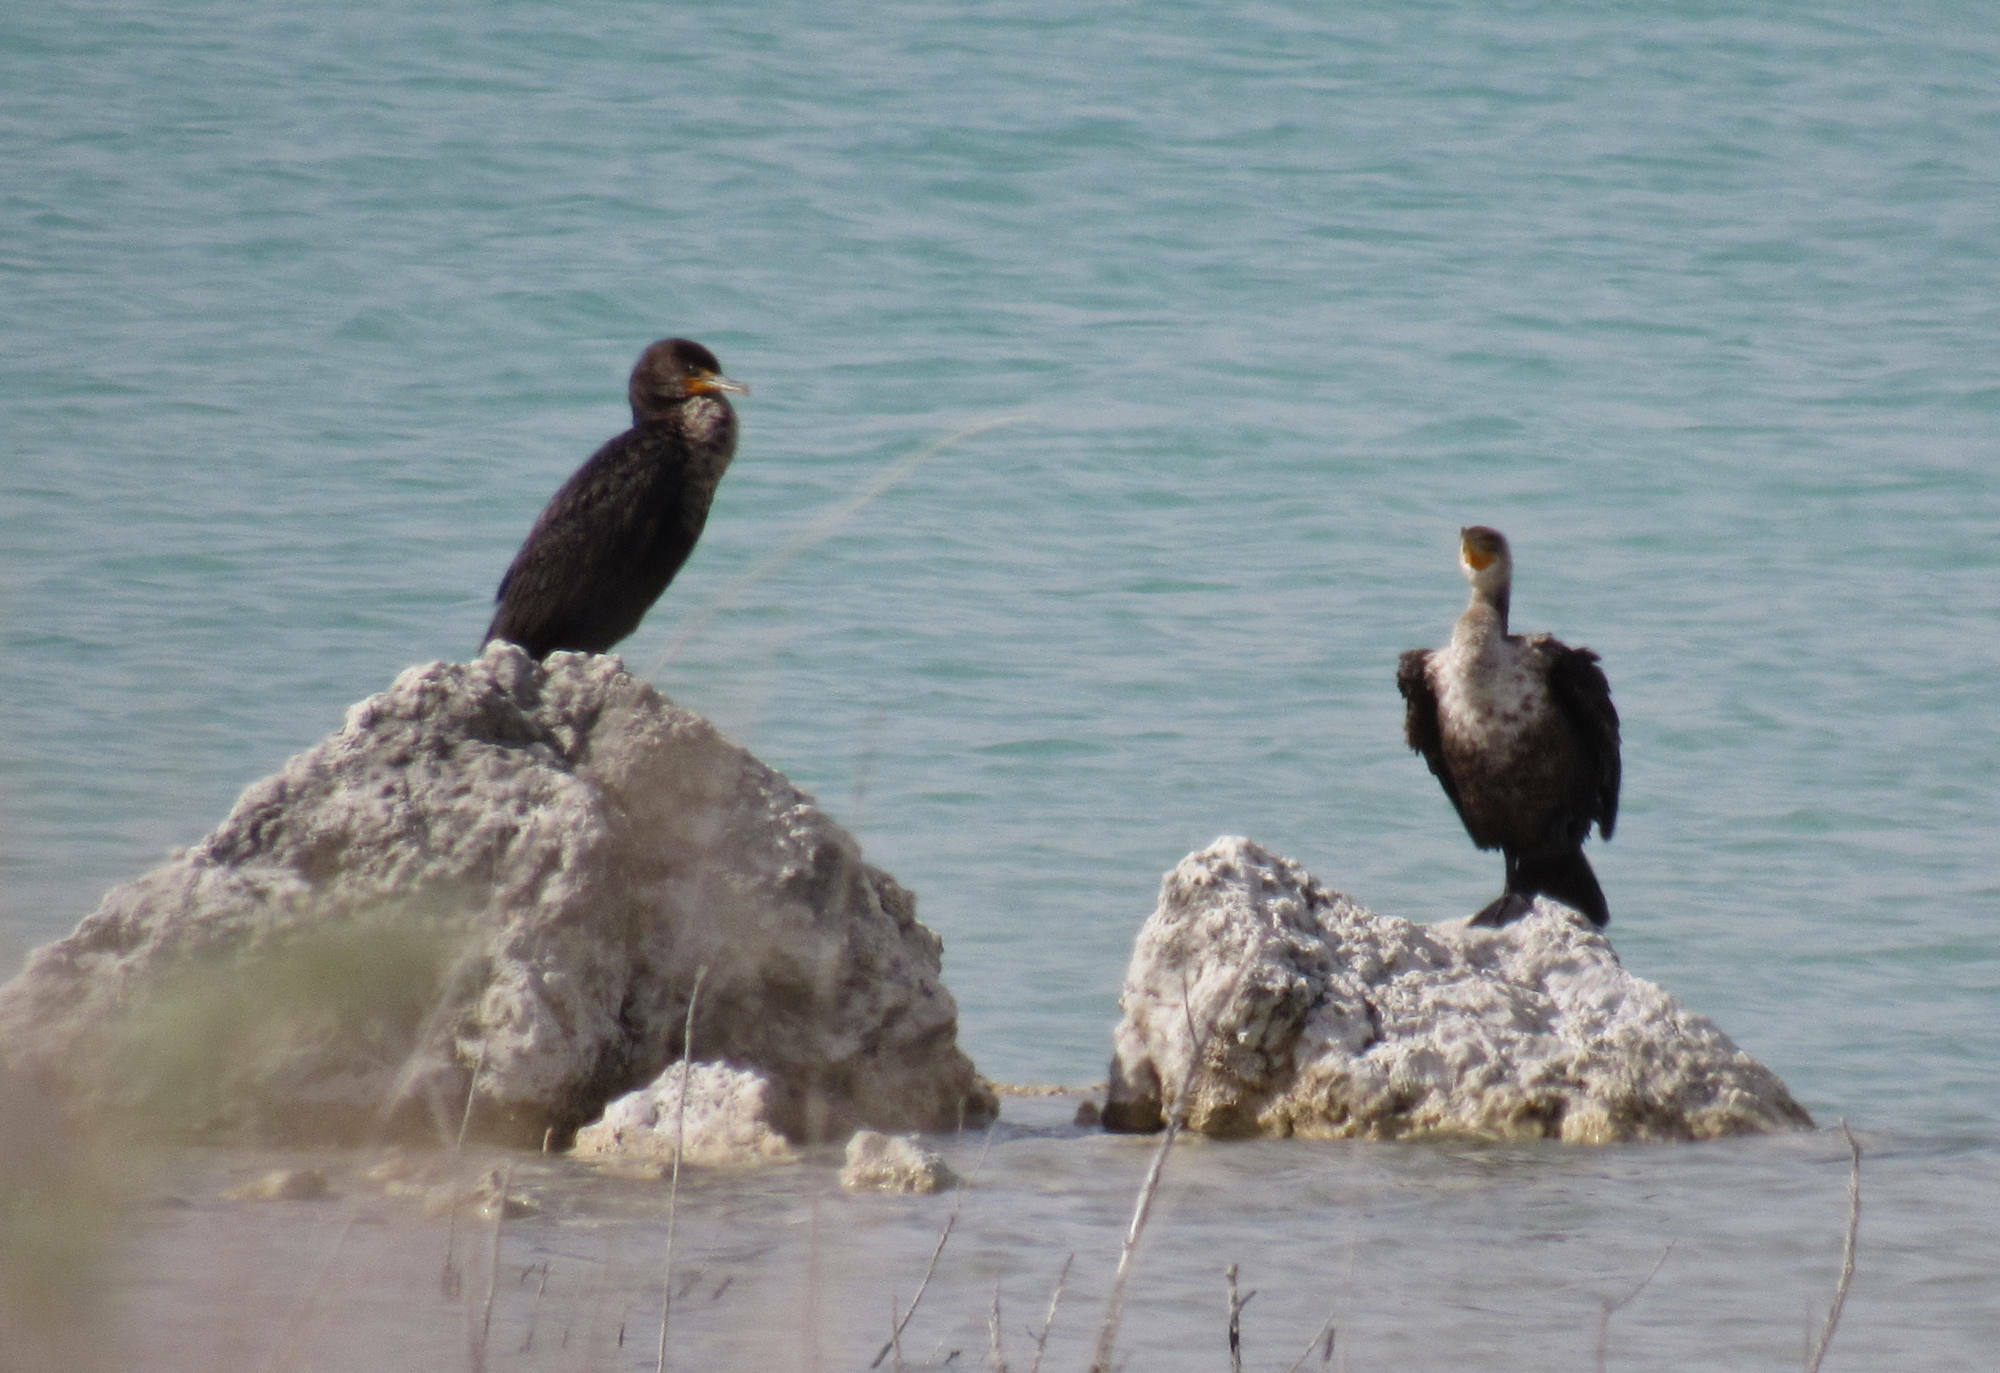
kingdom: Animalia
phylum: Chordata
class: Aves
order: Suliformes
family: Phalacrocoracidae
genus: Phalacrocorax
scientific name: Phalacrocorax auritus
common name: Double-crested cormorant
